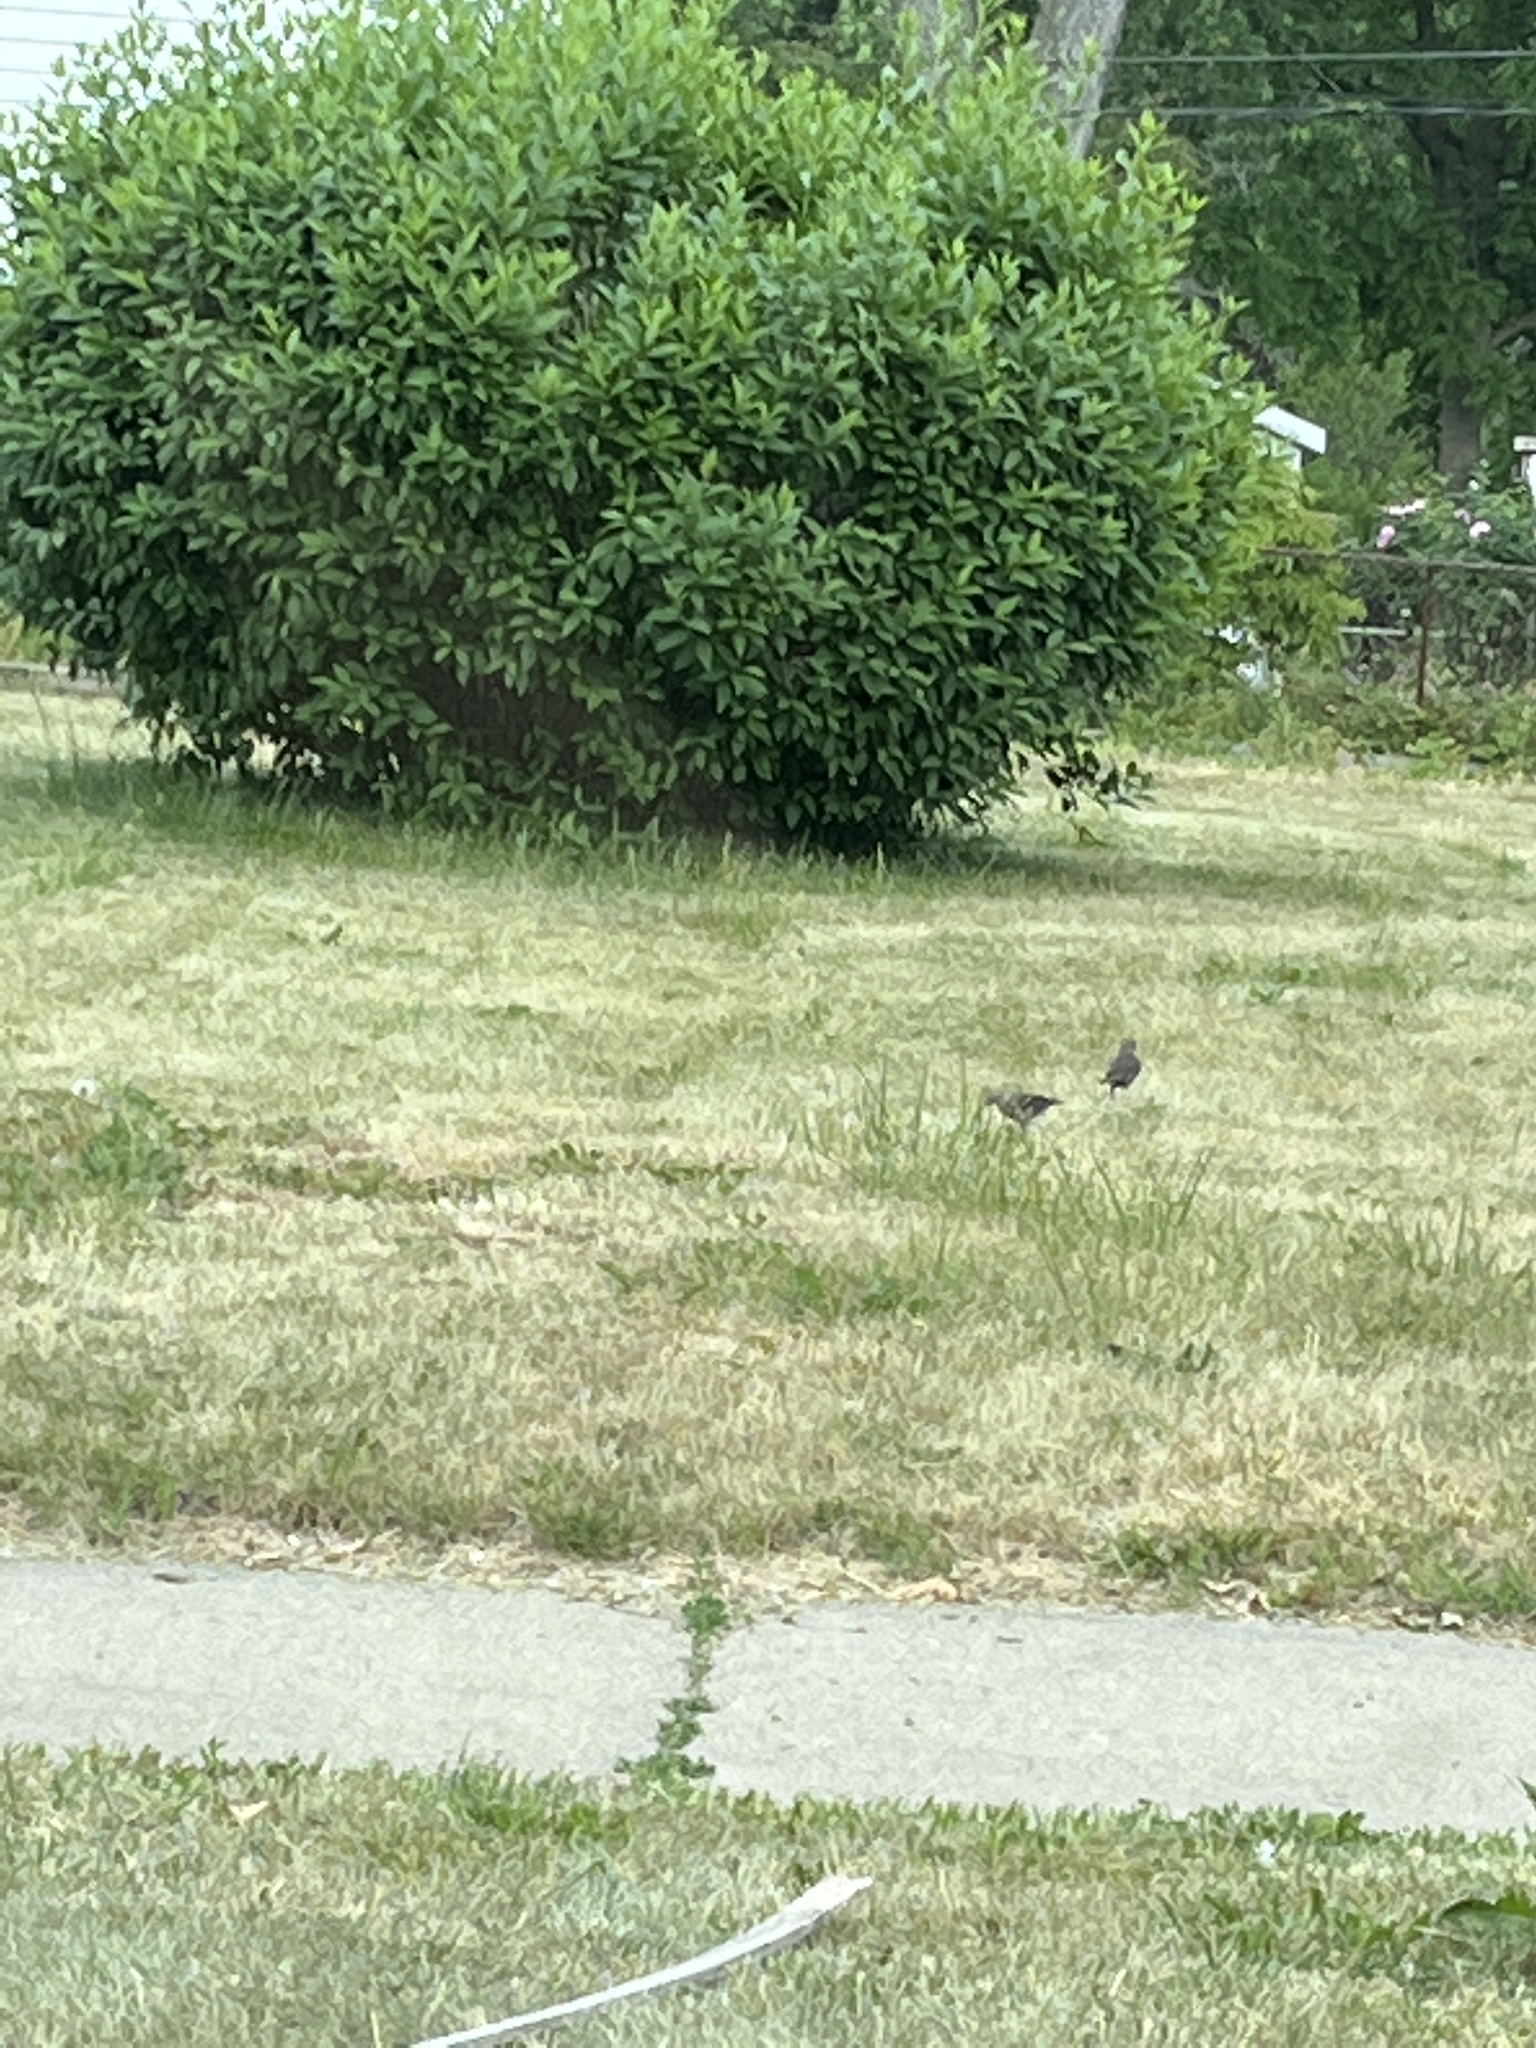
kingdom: Animalia
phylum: Chordata
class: Aves
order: Passeriformes
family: Icteridae
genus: Molothrus
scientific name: Molothrus ater
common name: Brown-headed cowbird
